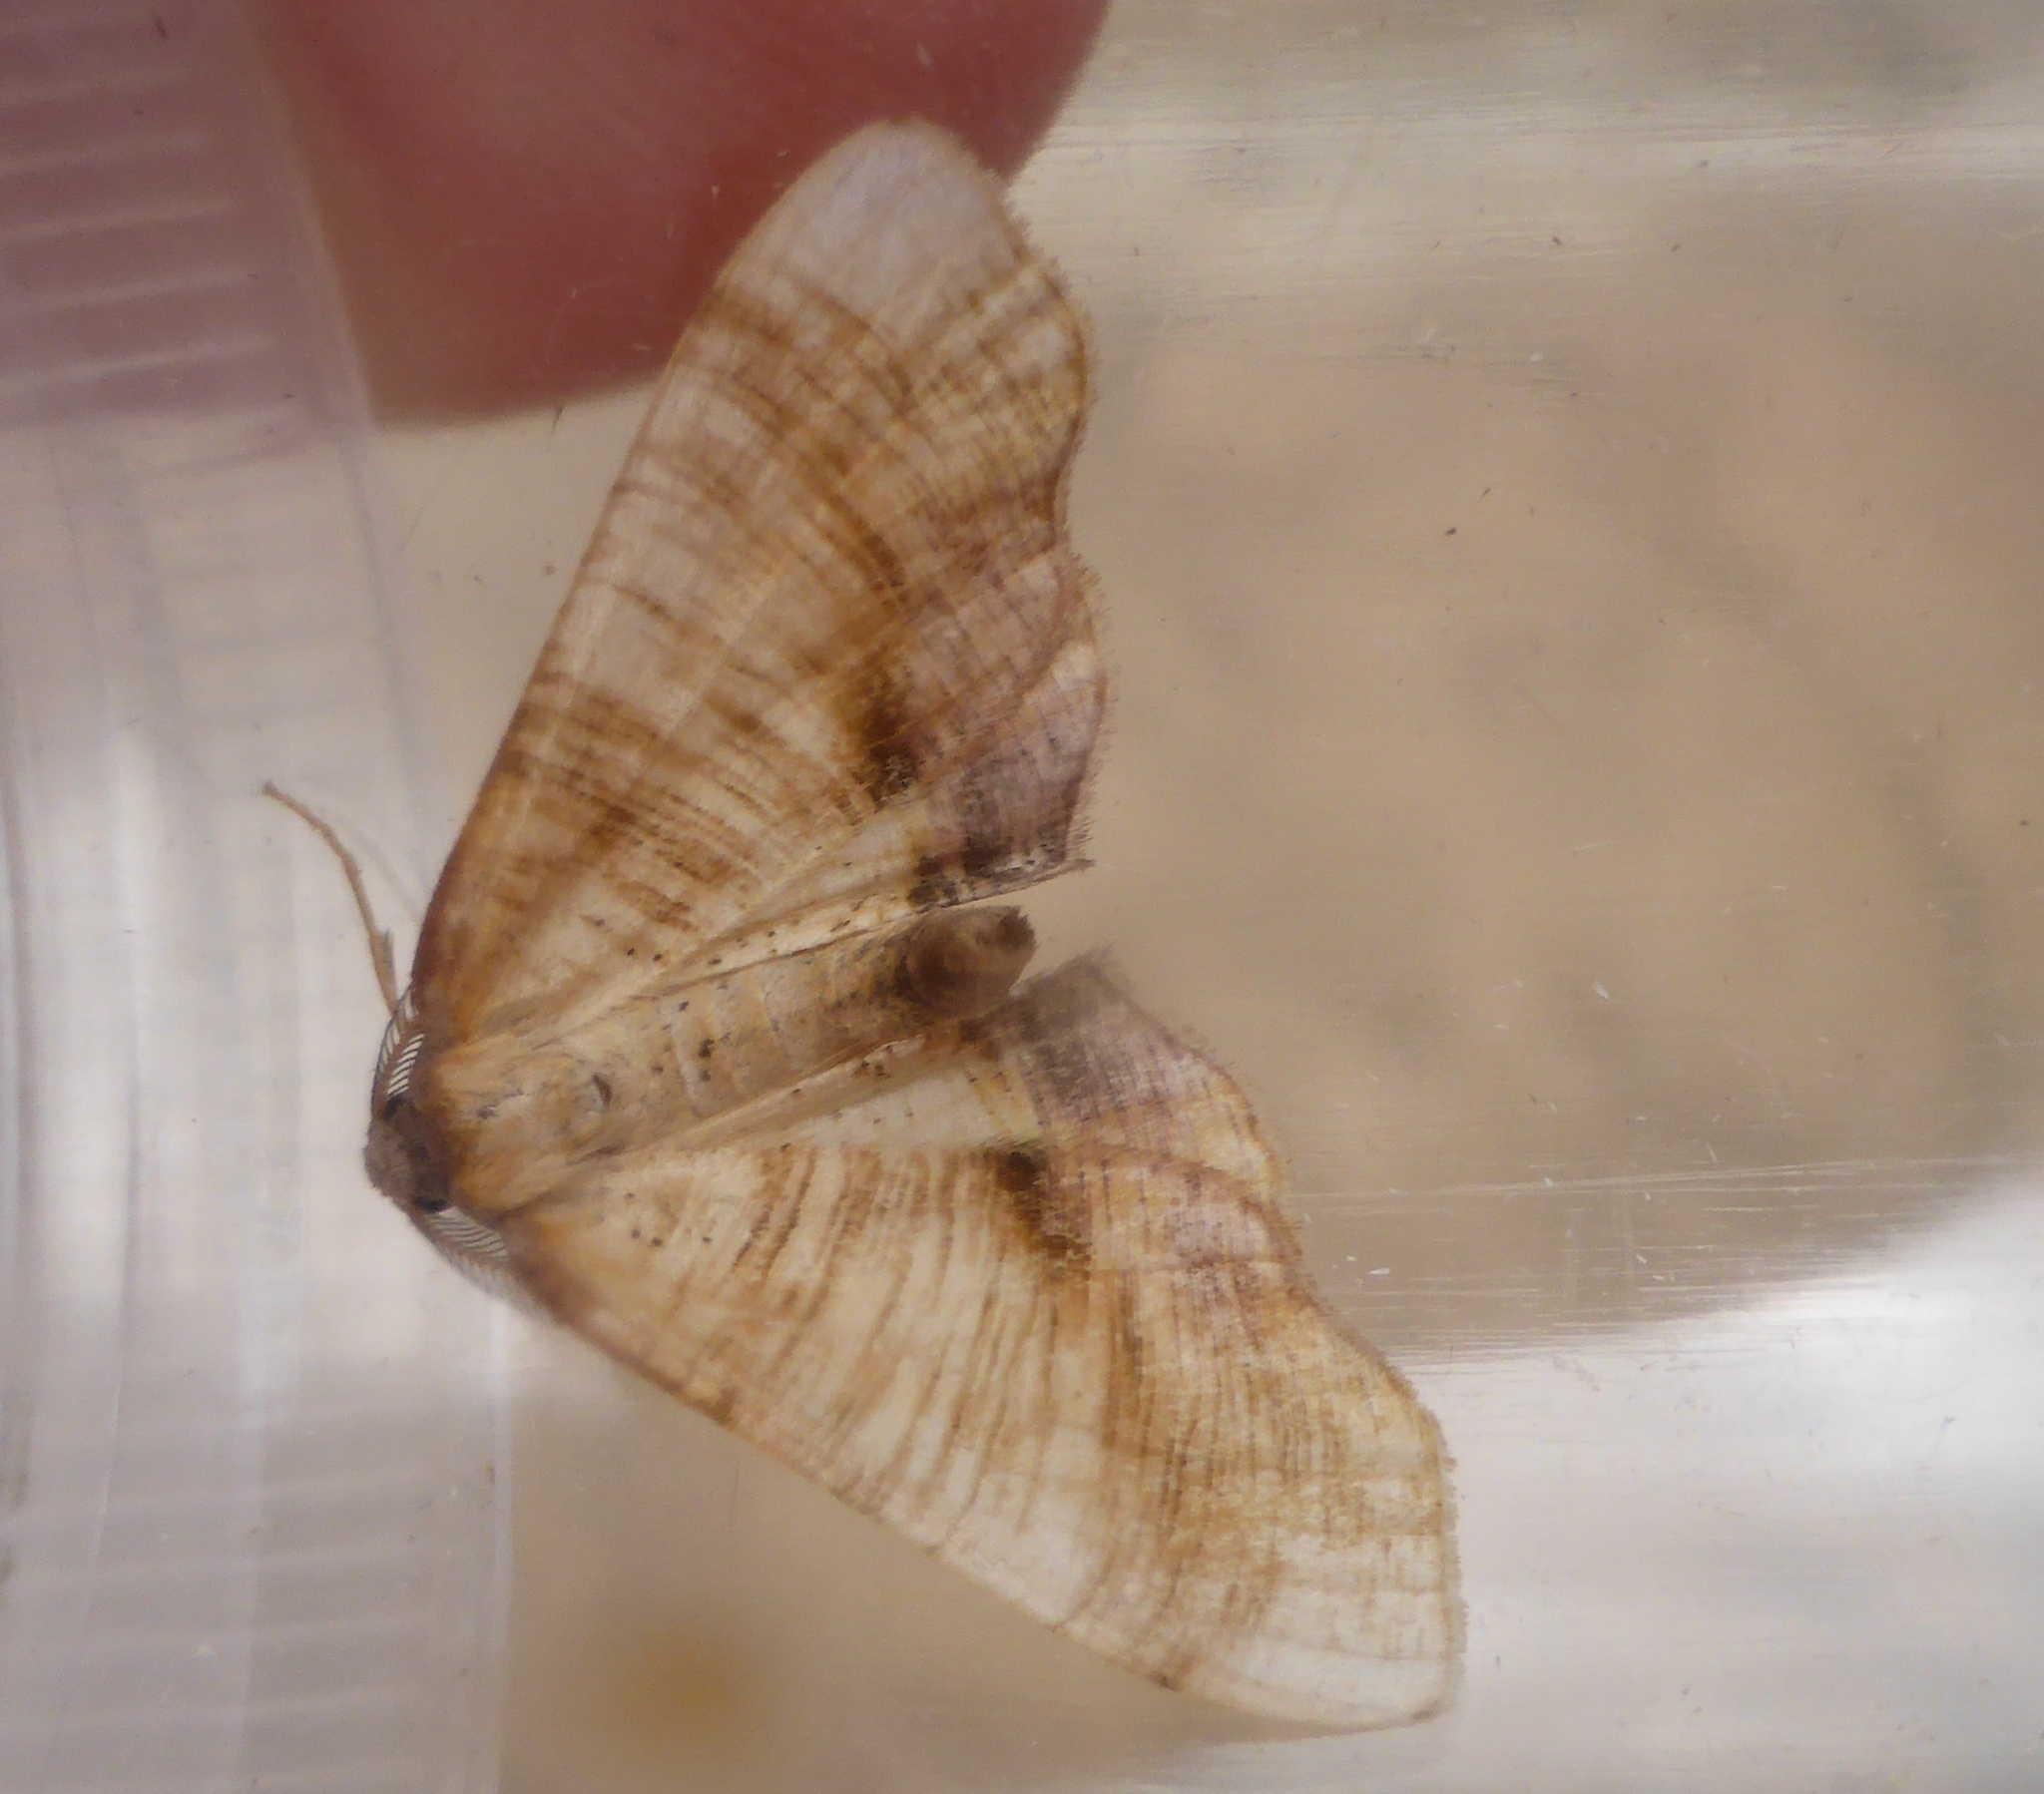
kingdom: Animalia
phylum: Arthropoda
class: Insecta
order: Lepidoptera
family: Geometridae
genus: Plagodis
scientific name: Plagodis dolabraria
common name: Scorched wing
